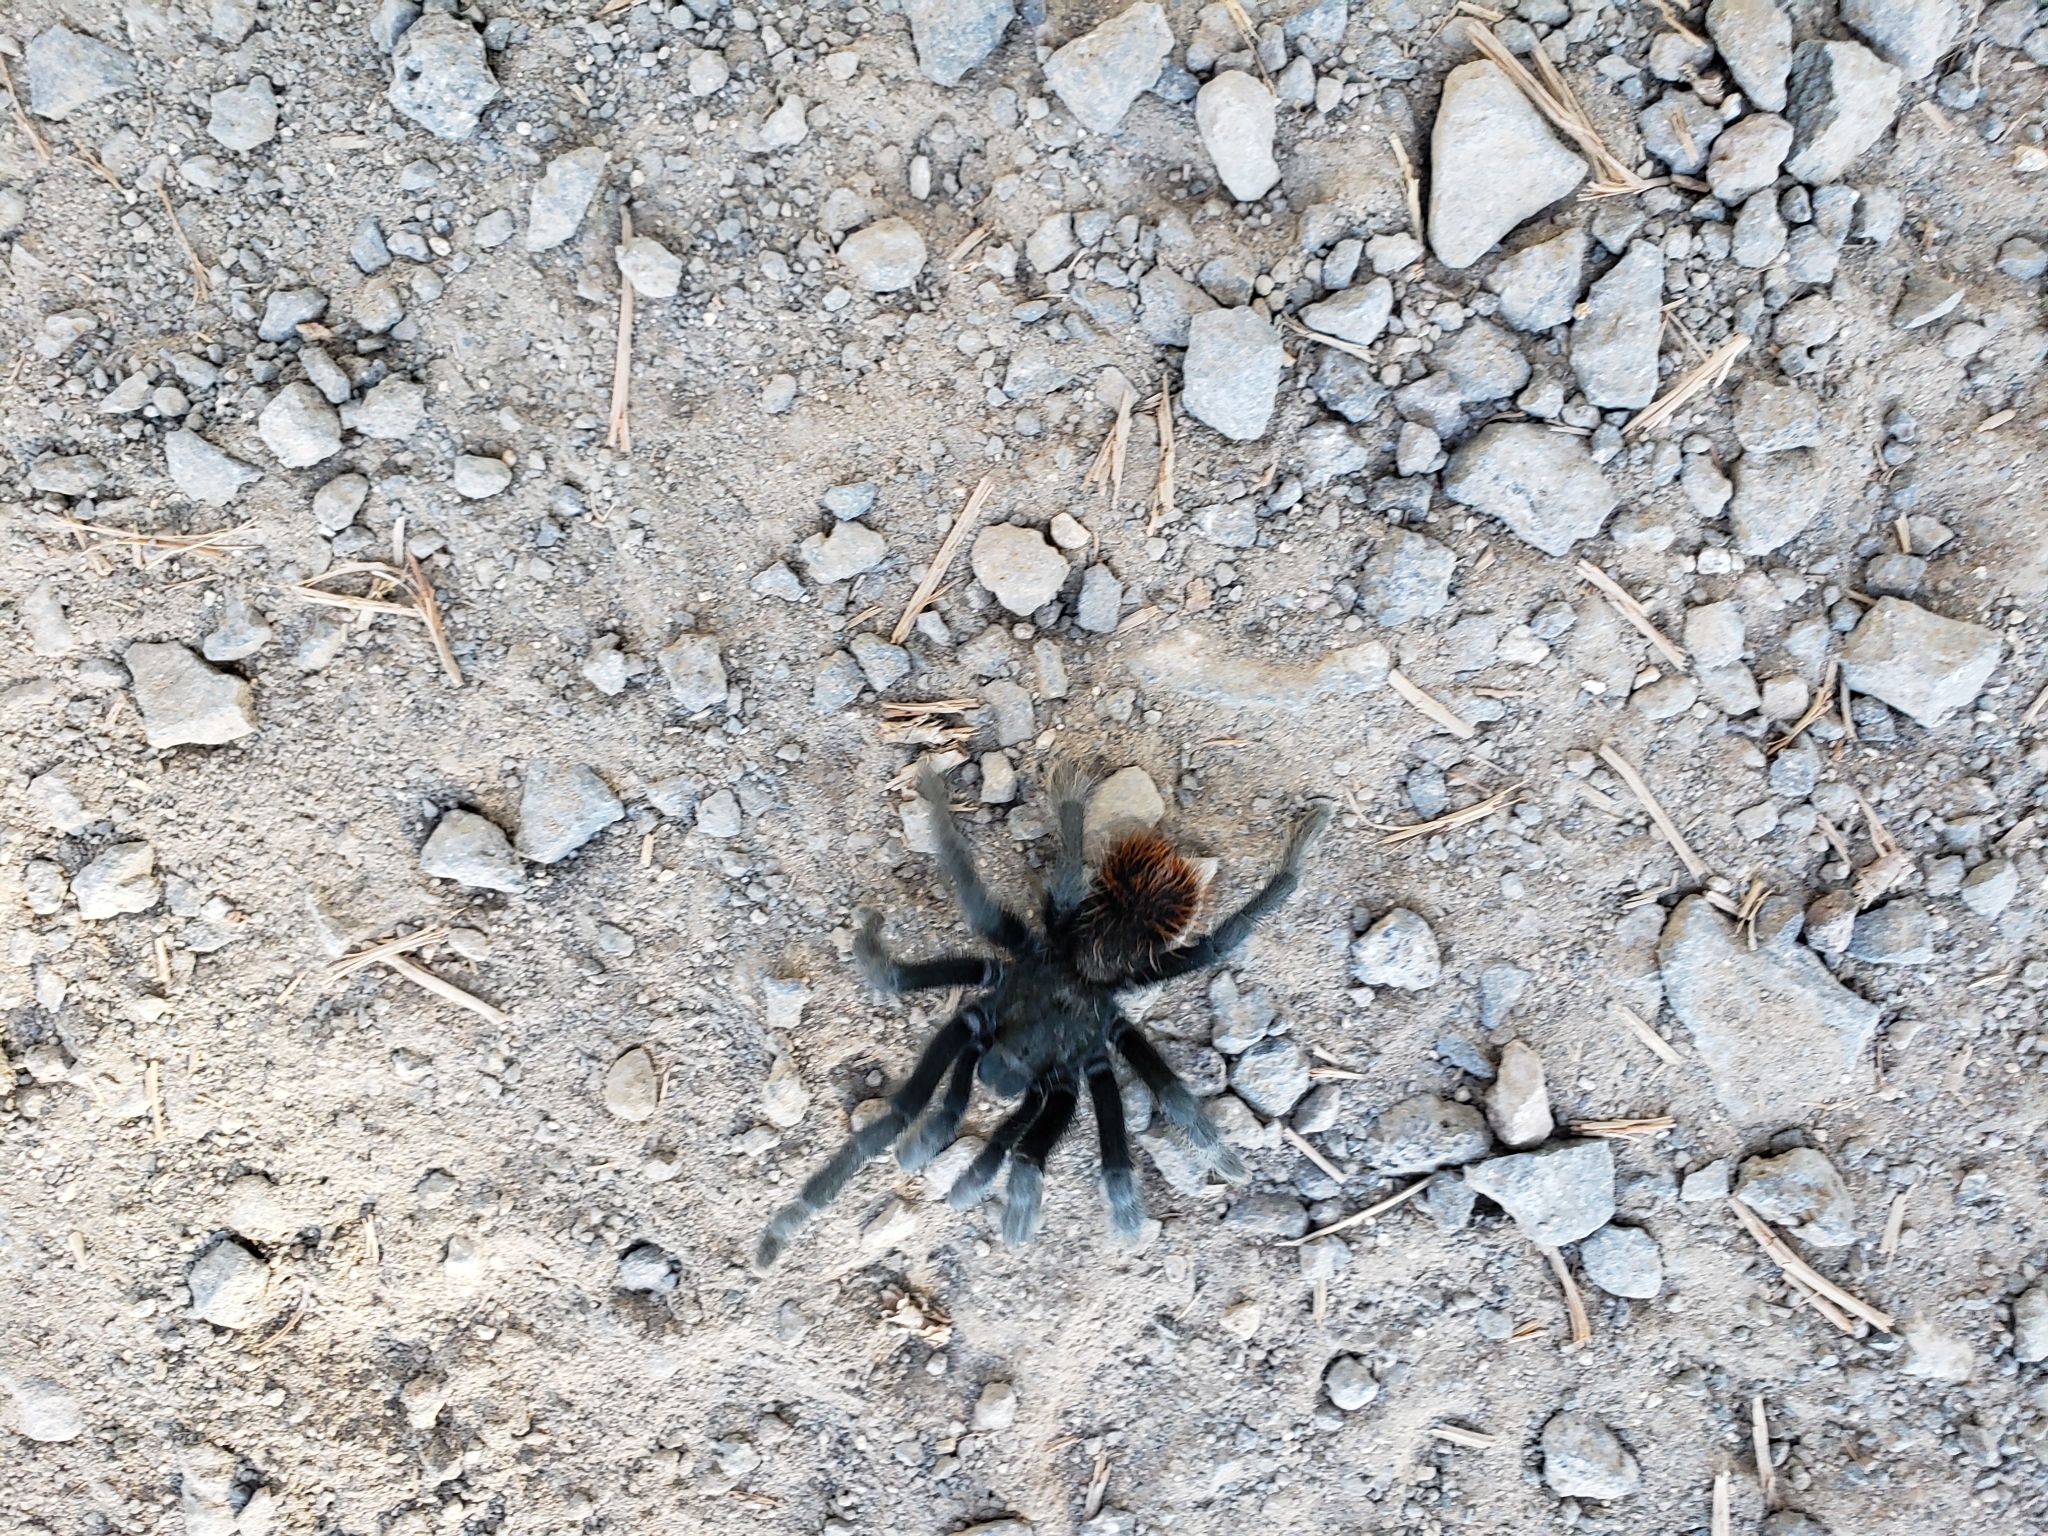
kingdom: Animalia
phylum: Arthropoda
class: Arachnida
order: Araneae
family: Theraphosidae
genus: Aphonopelma
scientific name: Aphonopelma marxi
